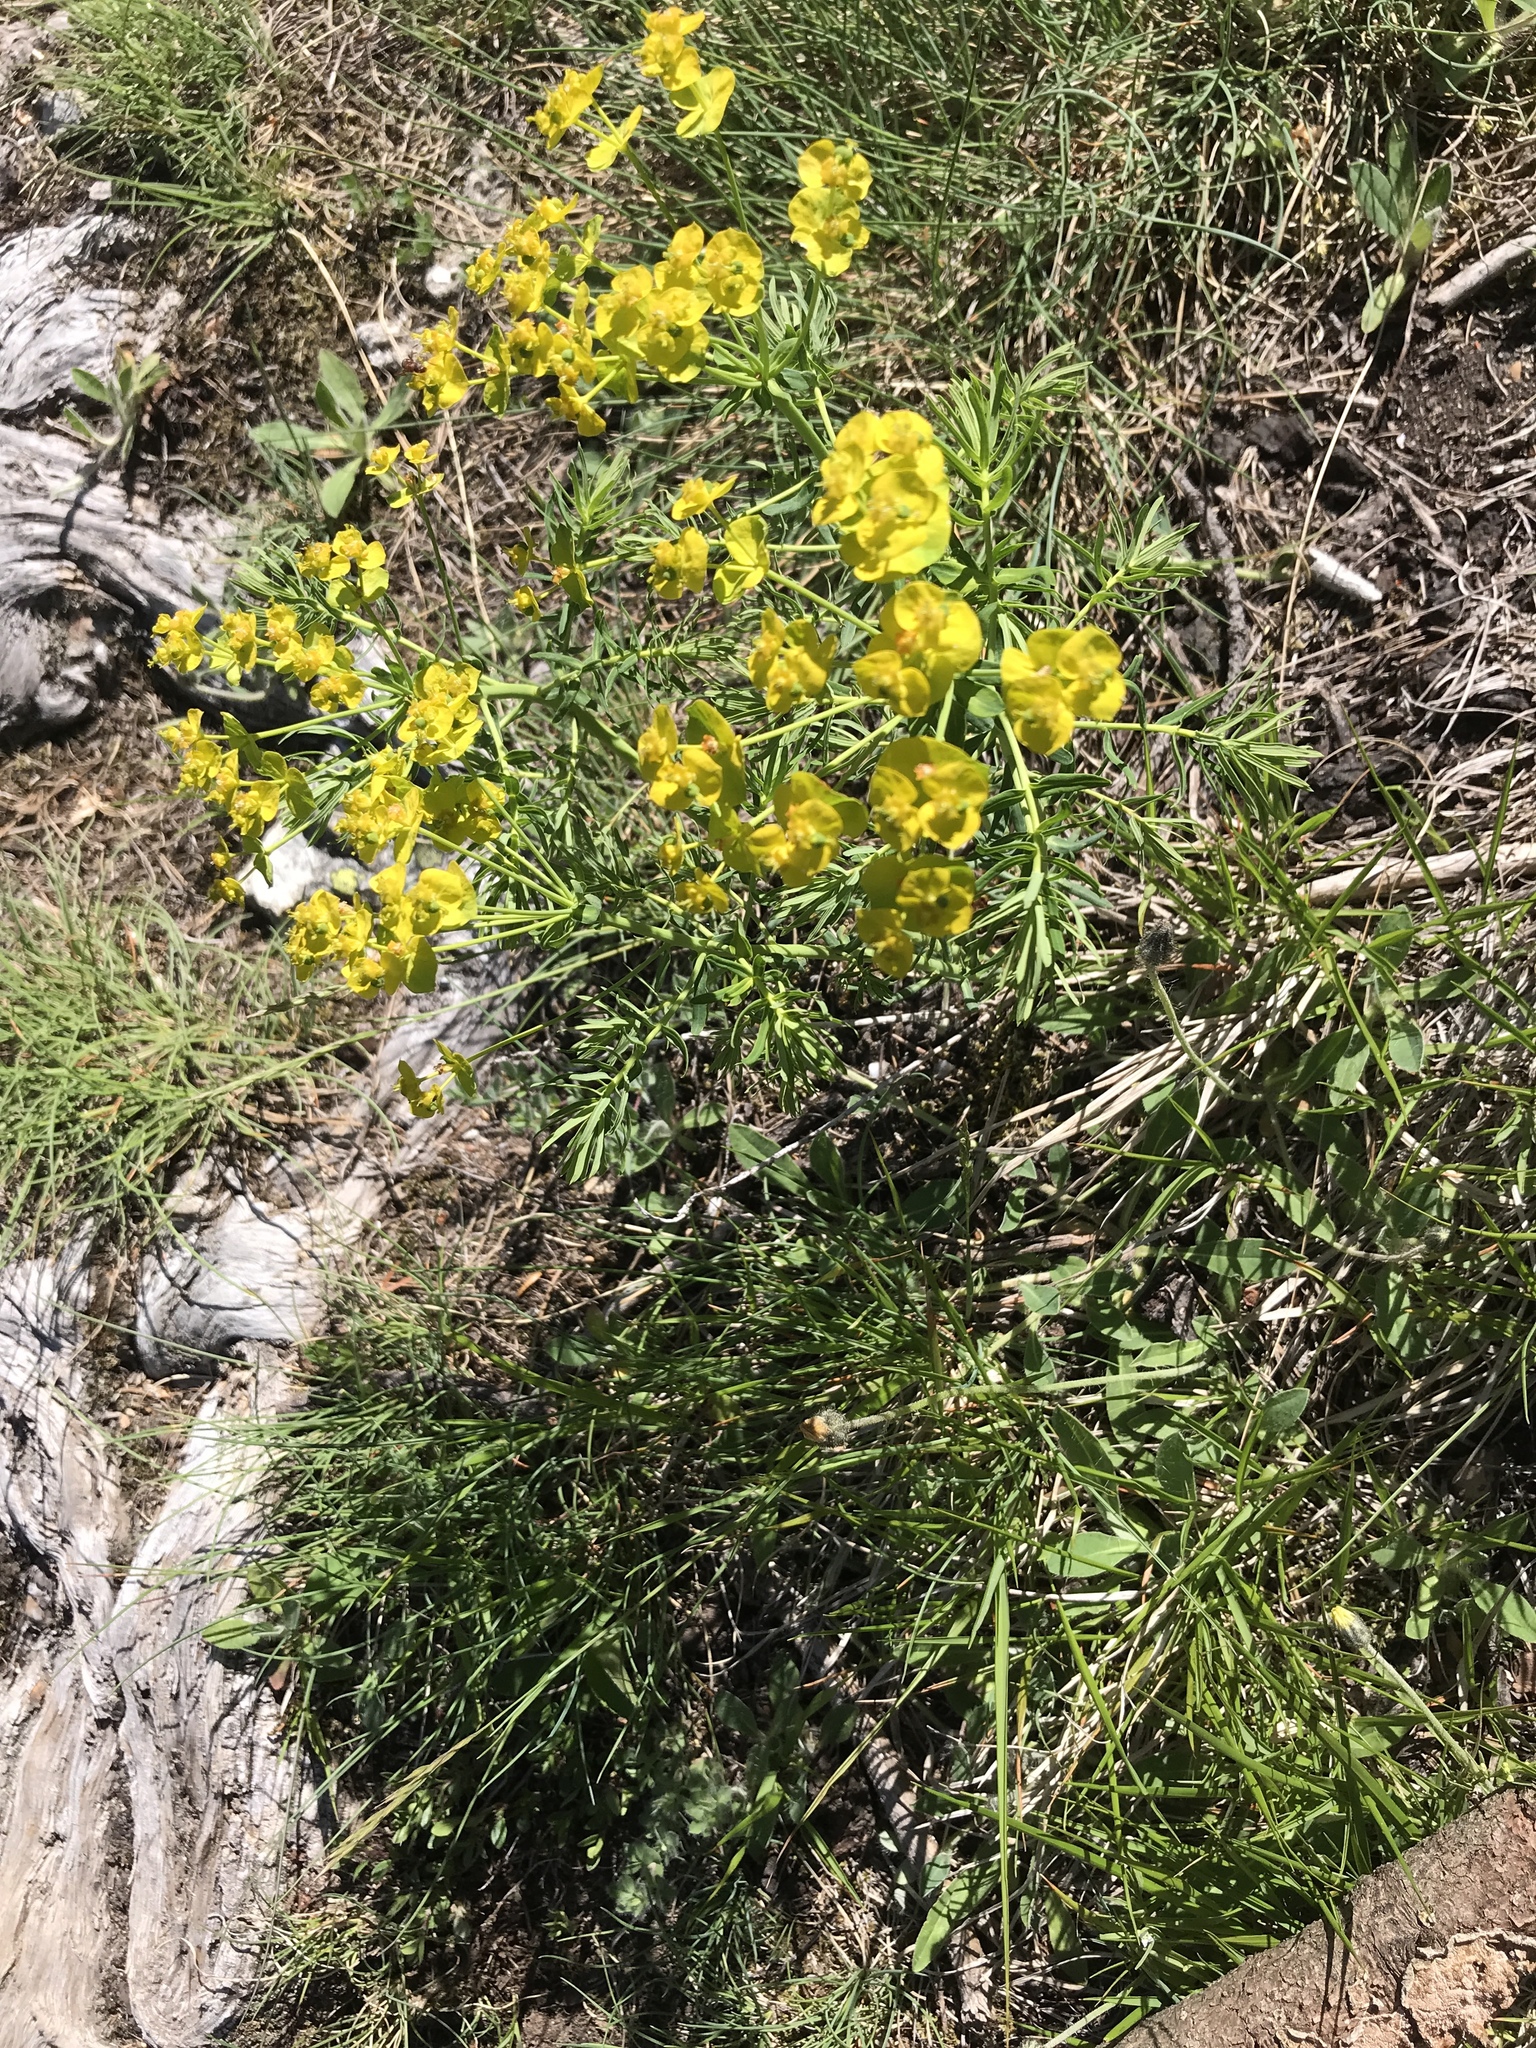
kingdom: Plantae
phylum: Tracheophyta
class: Magnoliopsida
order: Malpighiales
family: Euphorbiaceae
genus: Euphorbia
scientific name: Euphorbia cyparissias
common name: Cypress spurge
